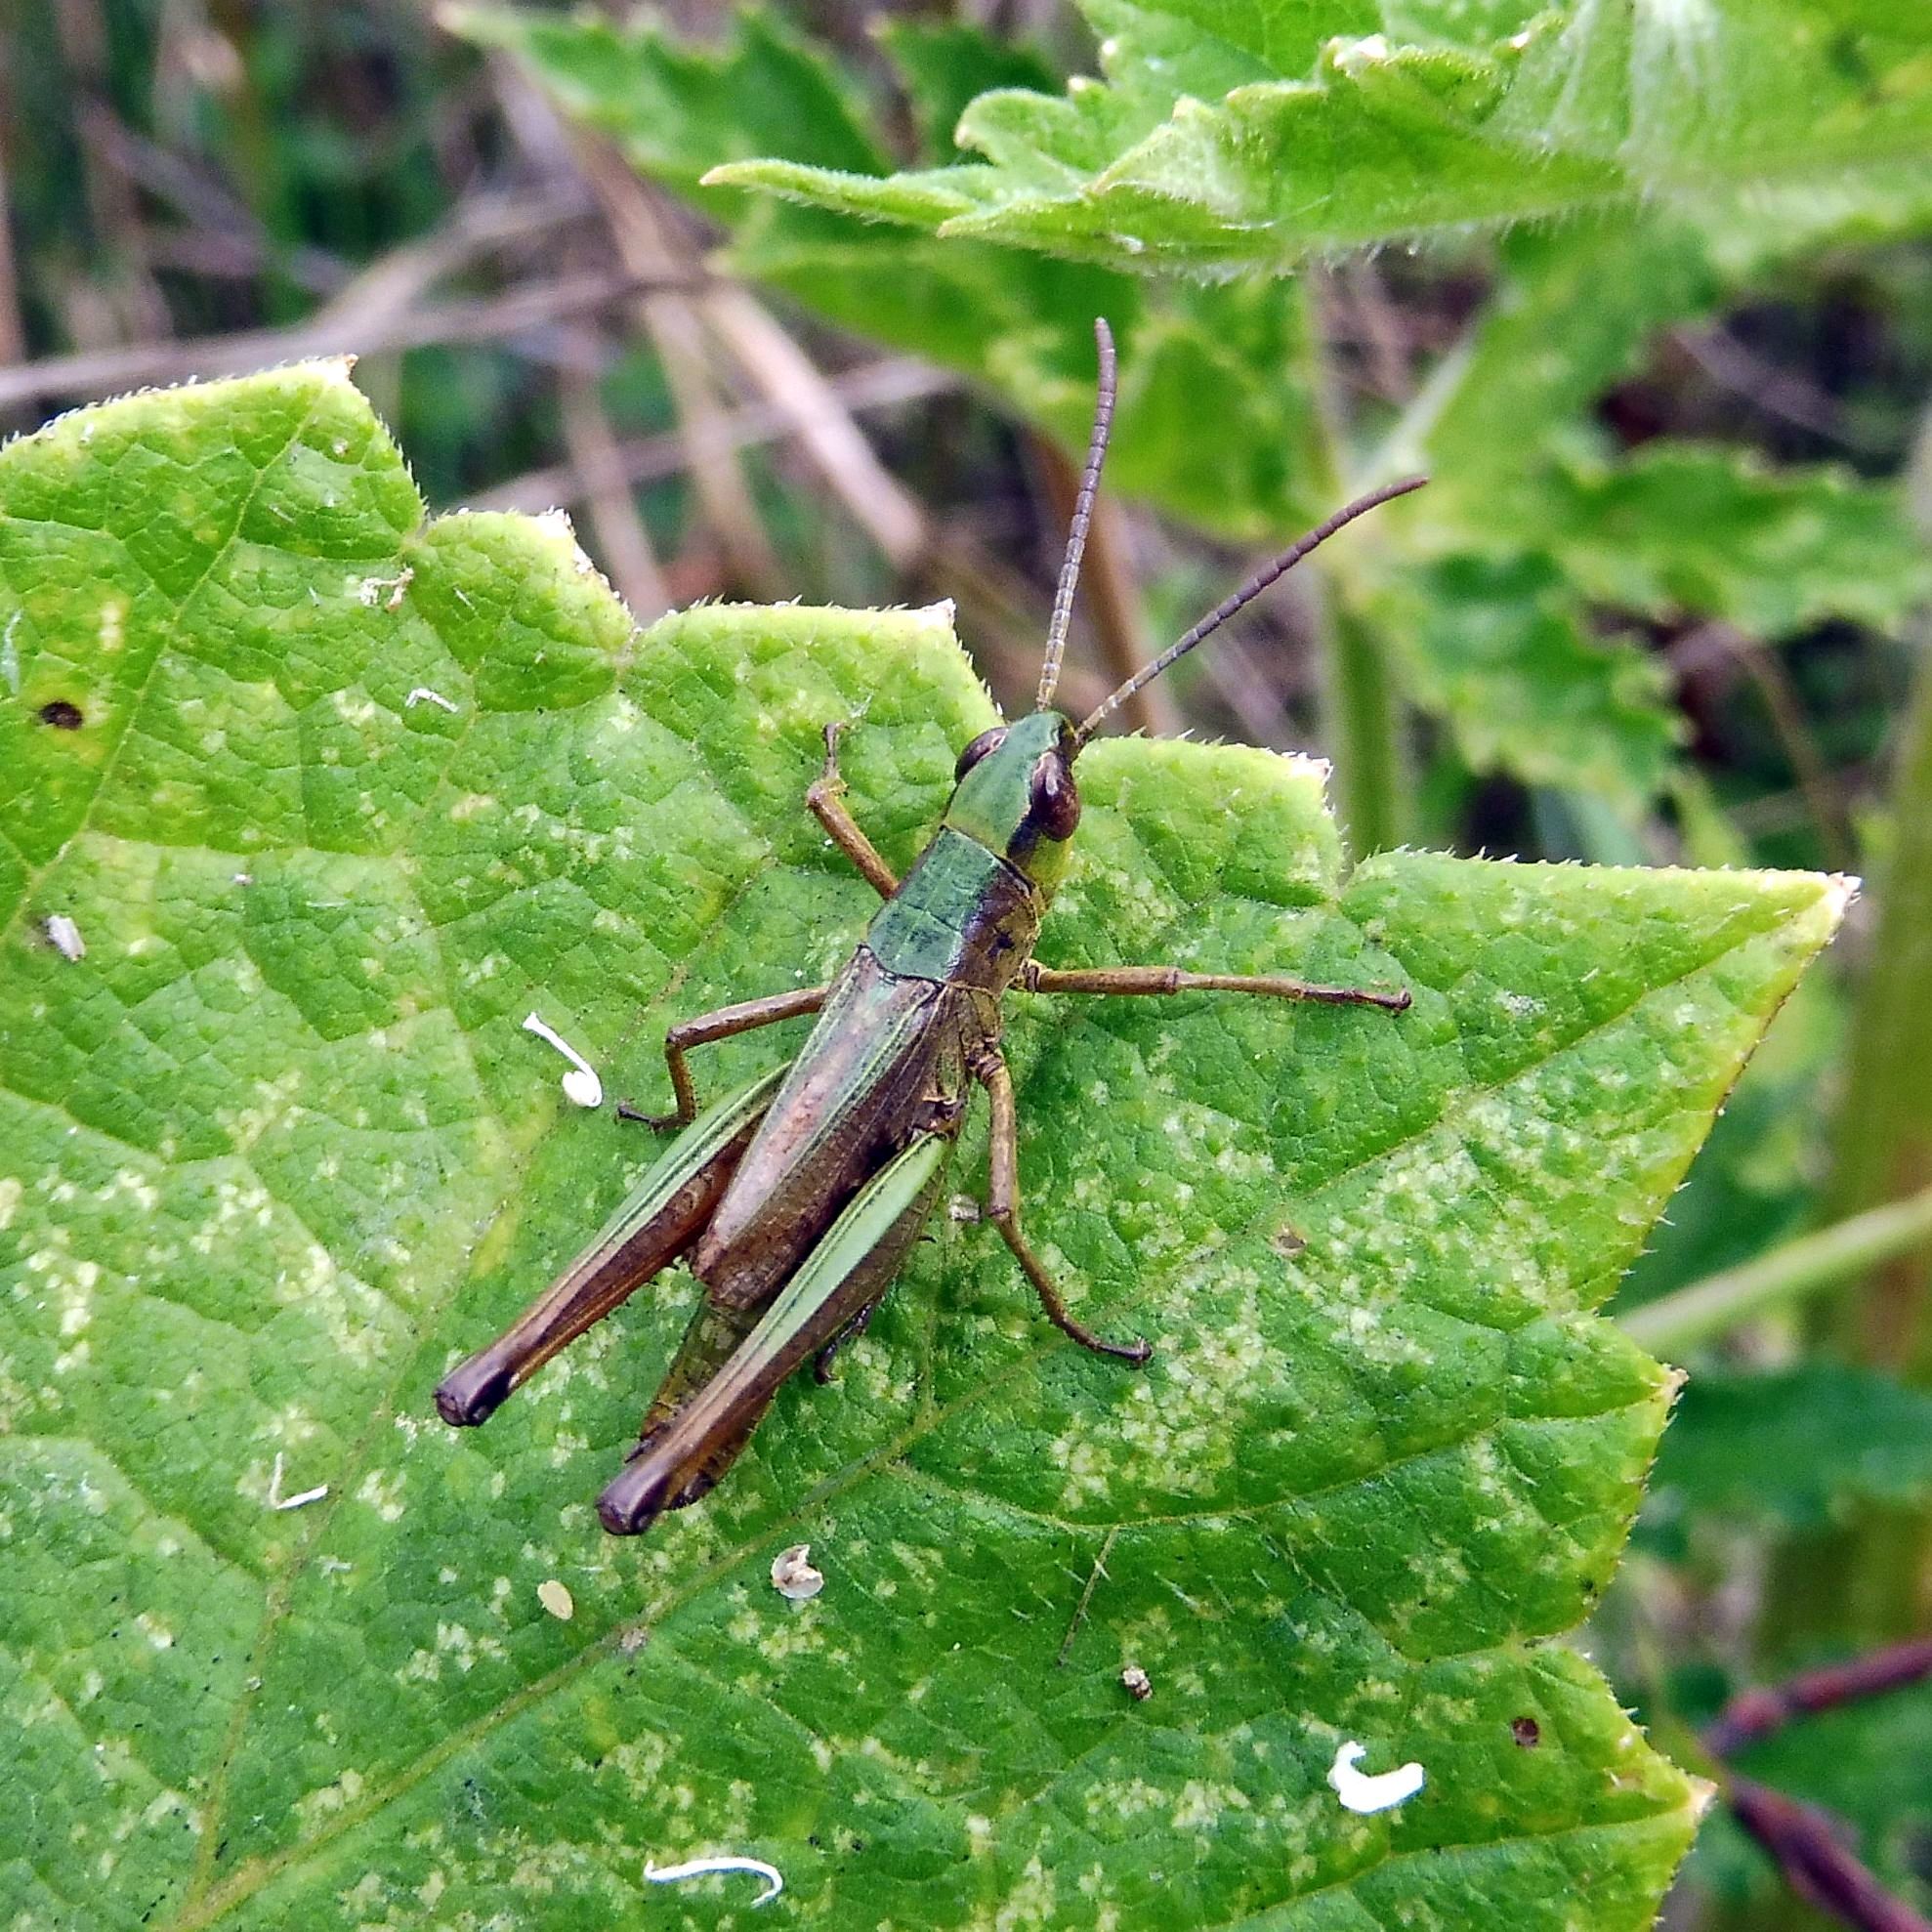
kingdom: Animalia
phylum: Arthropoda
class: Insecta
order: Orthoptera
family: Acrididae
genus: Pseudochorthippus
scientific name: Pseudochorthippus parallelus
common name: Meadow grasshopper
